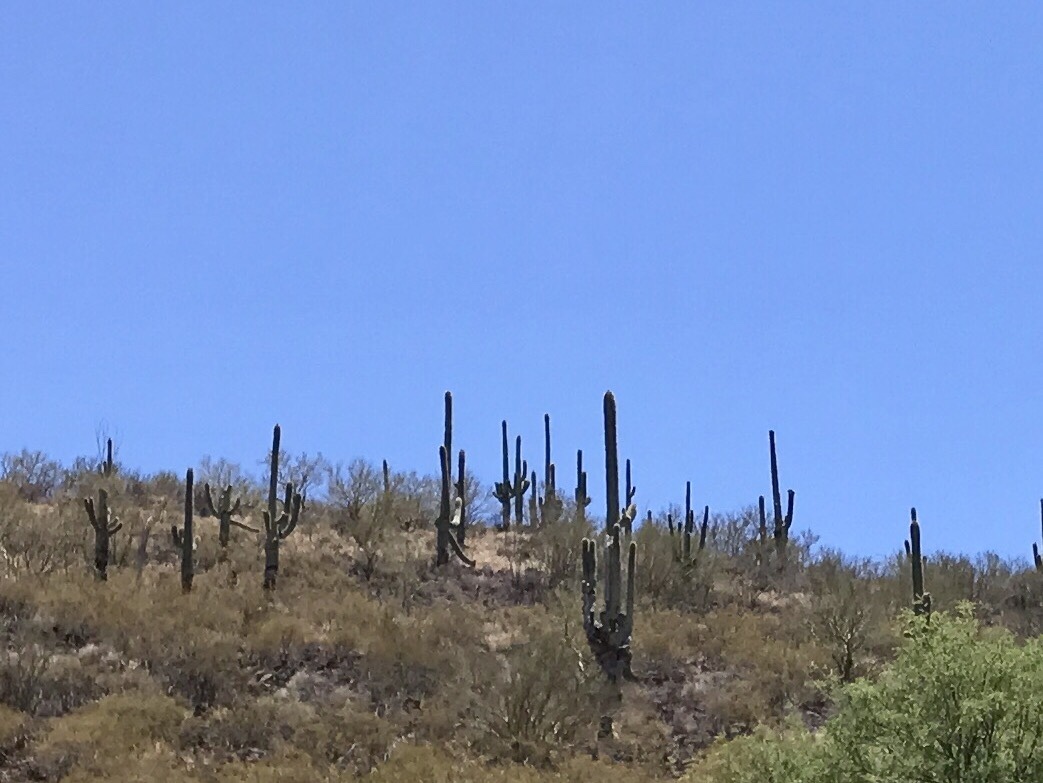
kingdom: Plantae
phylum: Tracheophyta
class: Magnoliopsida
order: Caryophyllales
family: Cactaceae
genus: Carnegiea
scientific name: Carnegiea gigantea
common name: Saguaro
